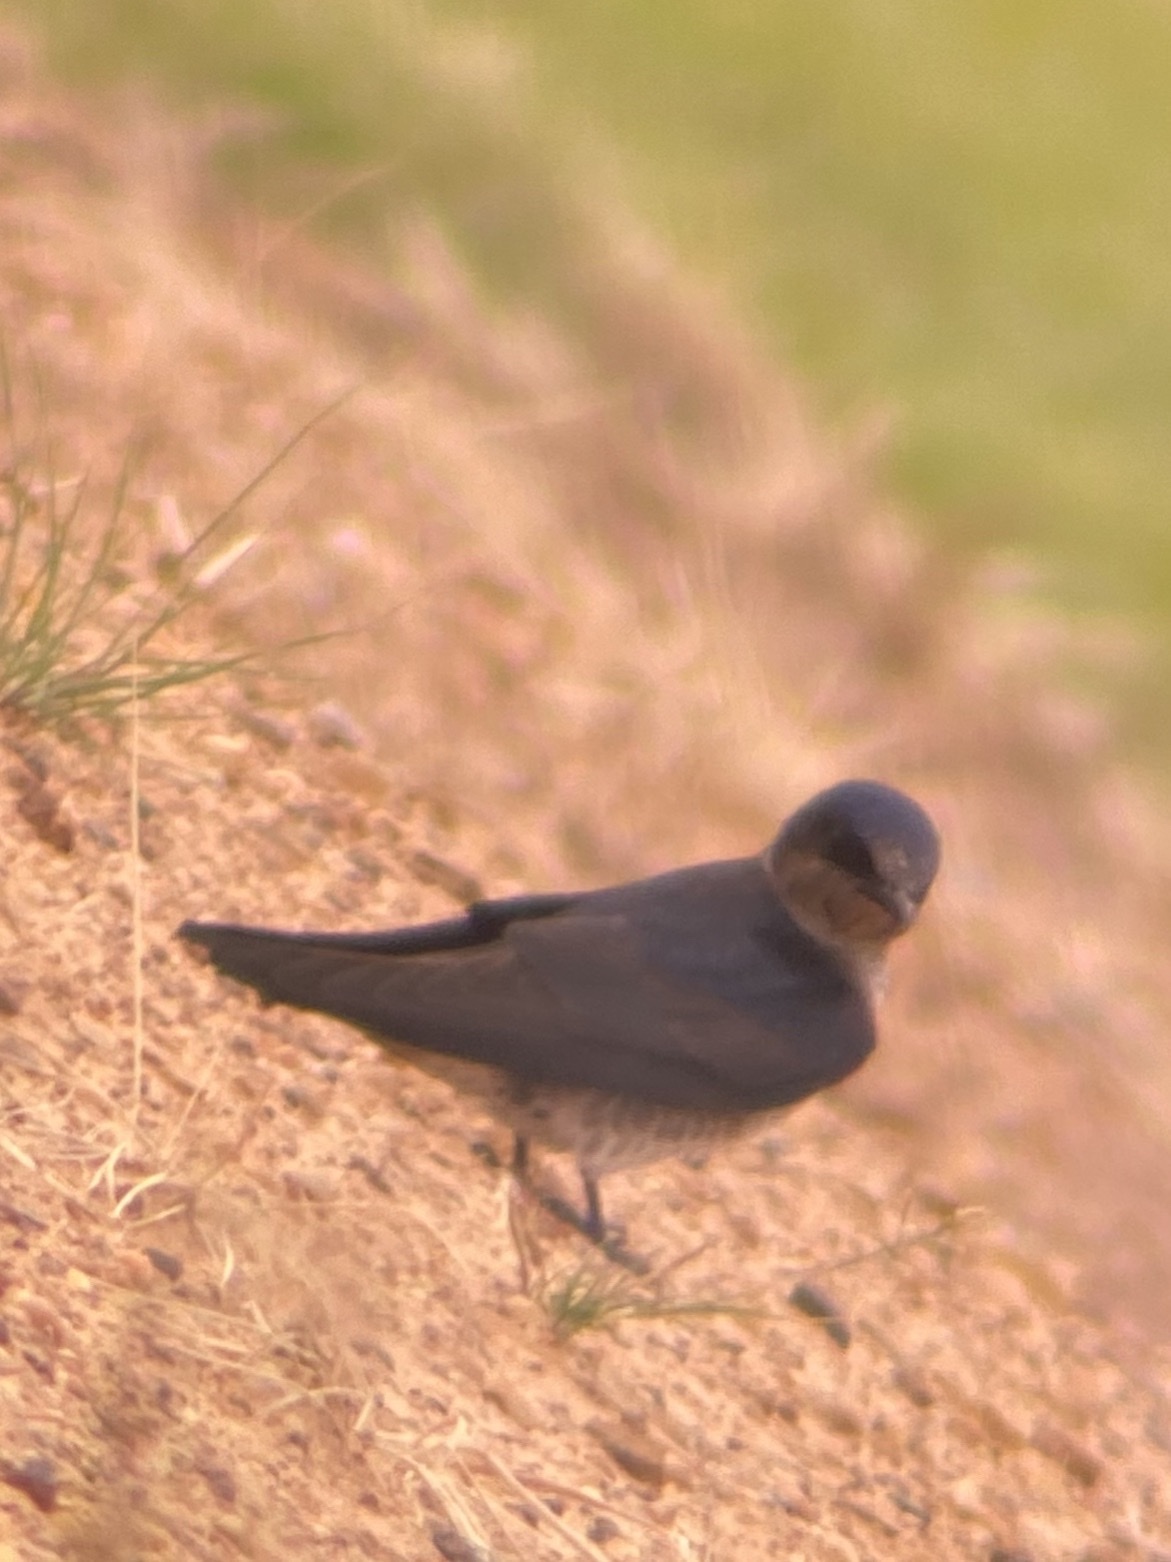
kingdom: Animalia
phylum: Chordata
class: Aves
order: Passeriformes
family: Hirundinidae
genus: Hirundo
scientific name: Hirundo rustica
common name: Barn swallow
